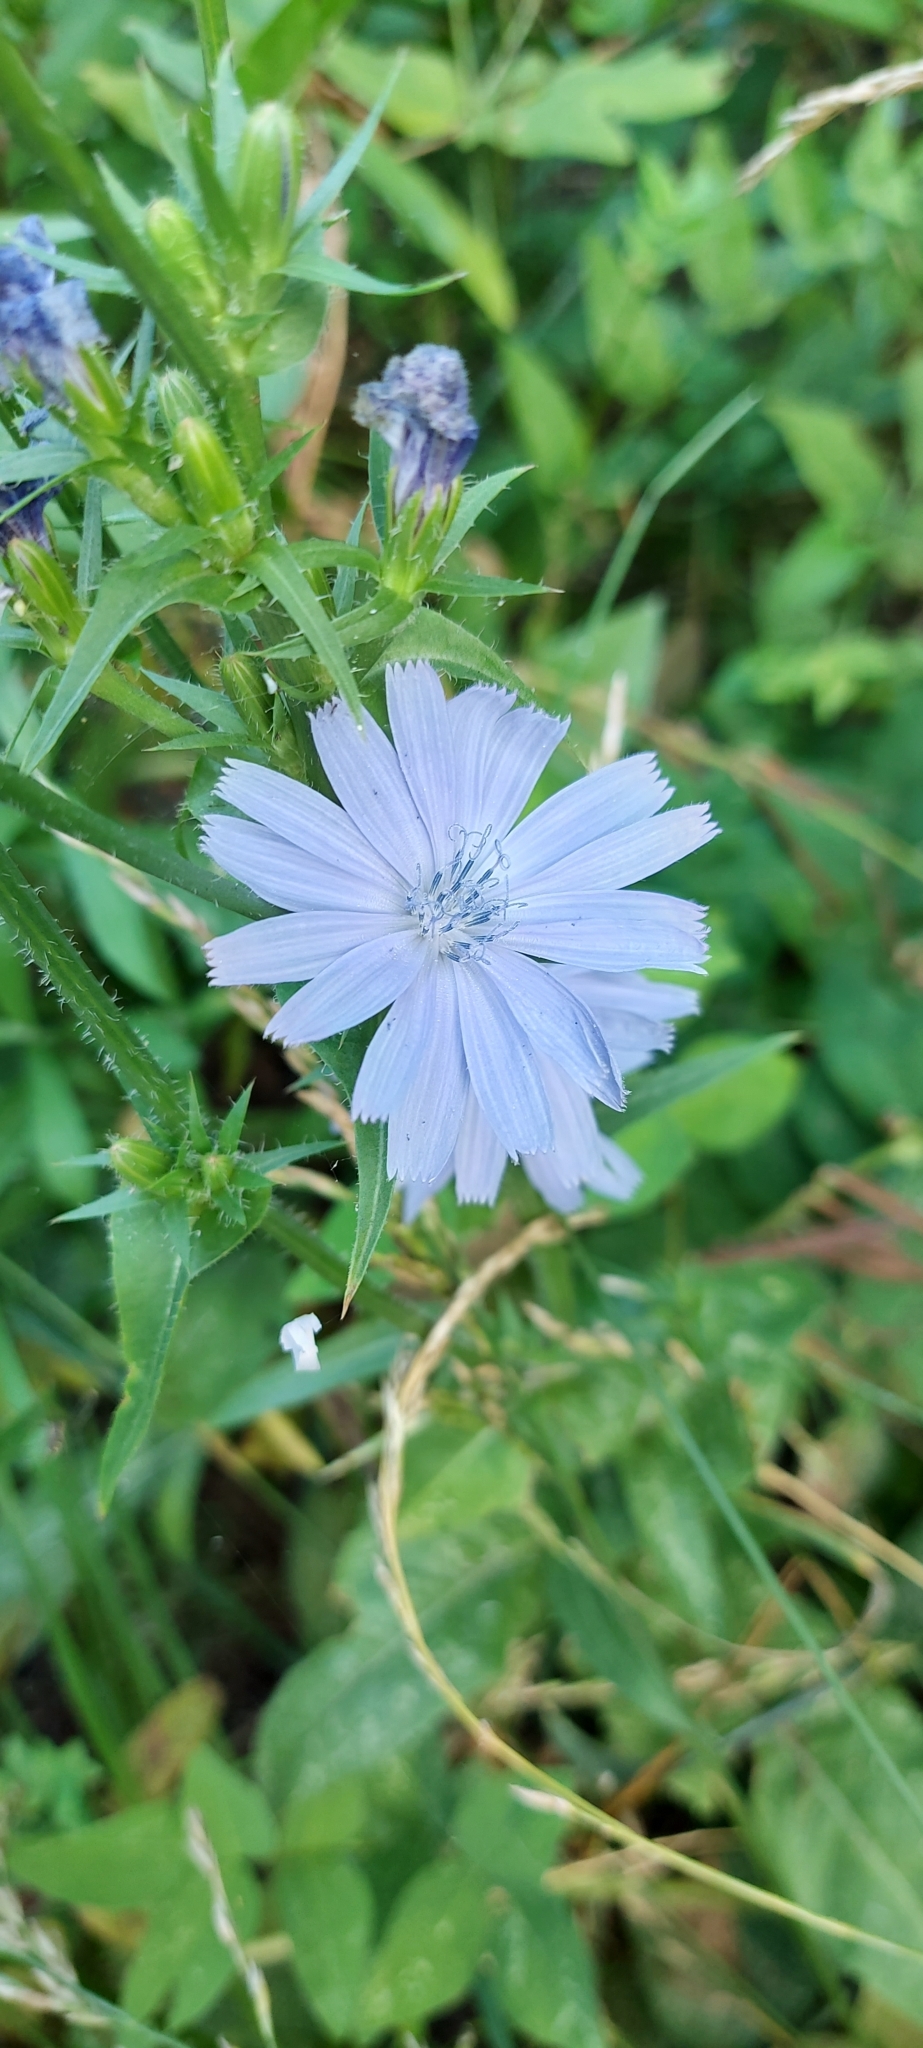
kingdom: Plantae
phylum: Tracheophyta
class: Magnoliopsida
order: Asterales
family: Asteraceae
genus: Cichorium
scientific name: Cichorium intybus
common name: Chicory
